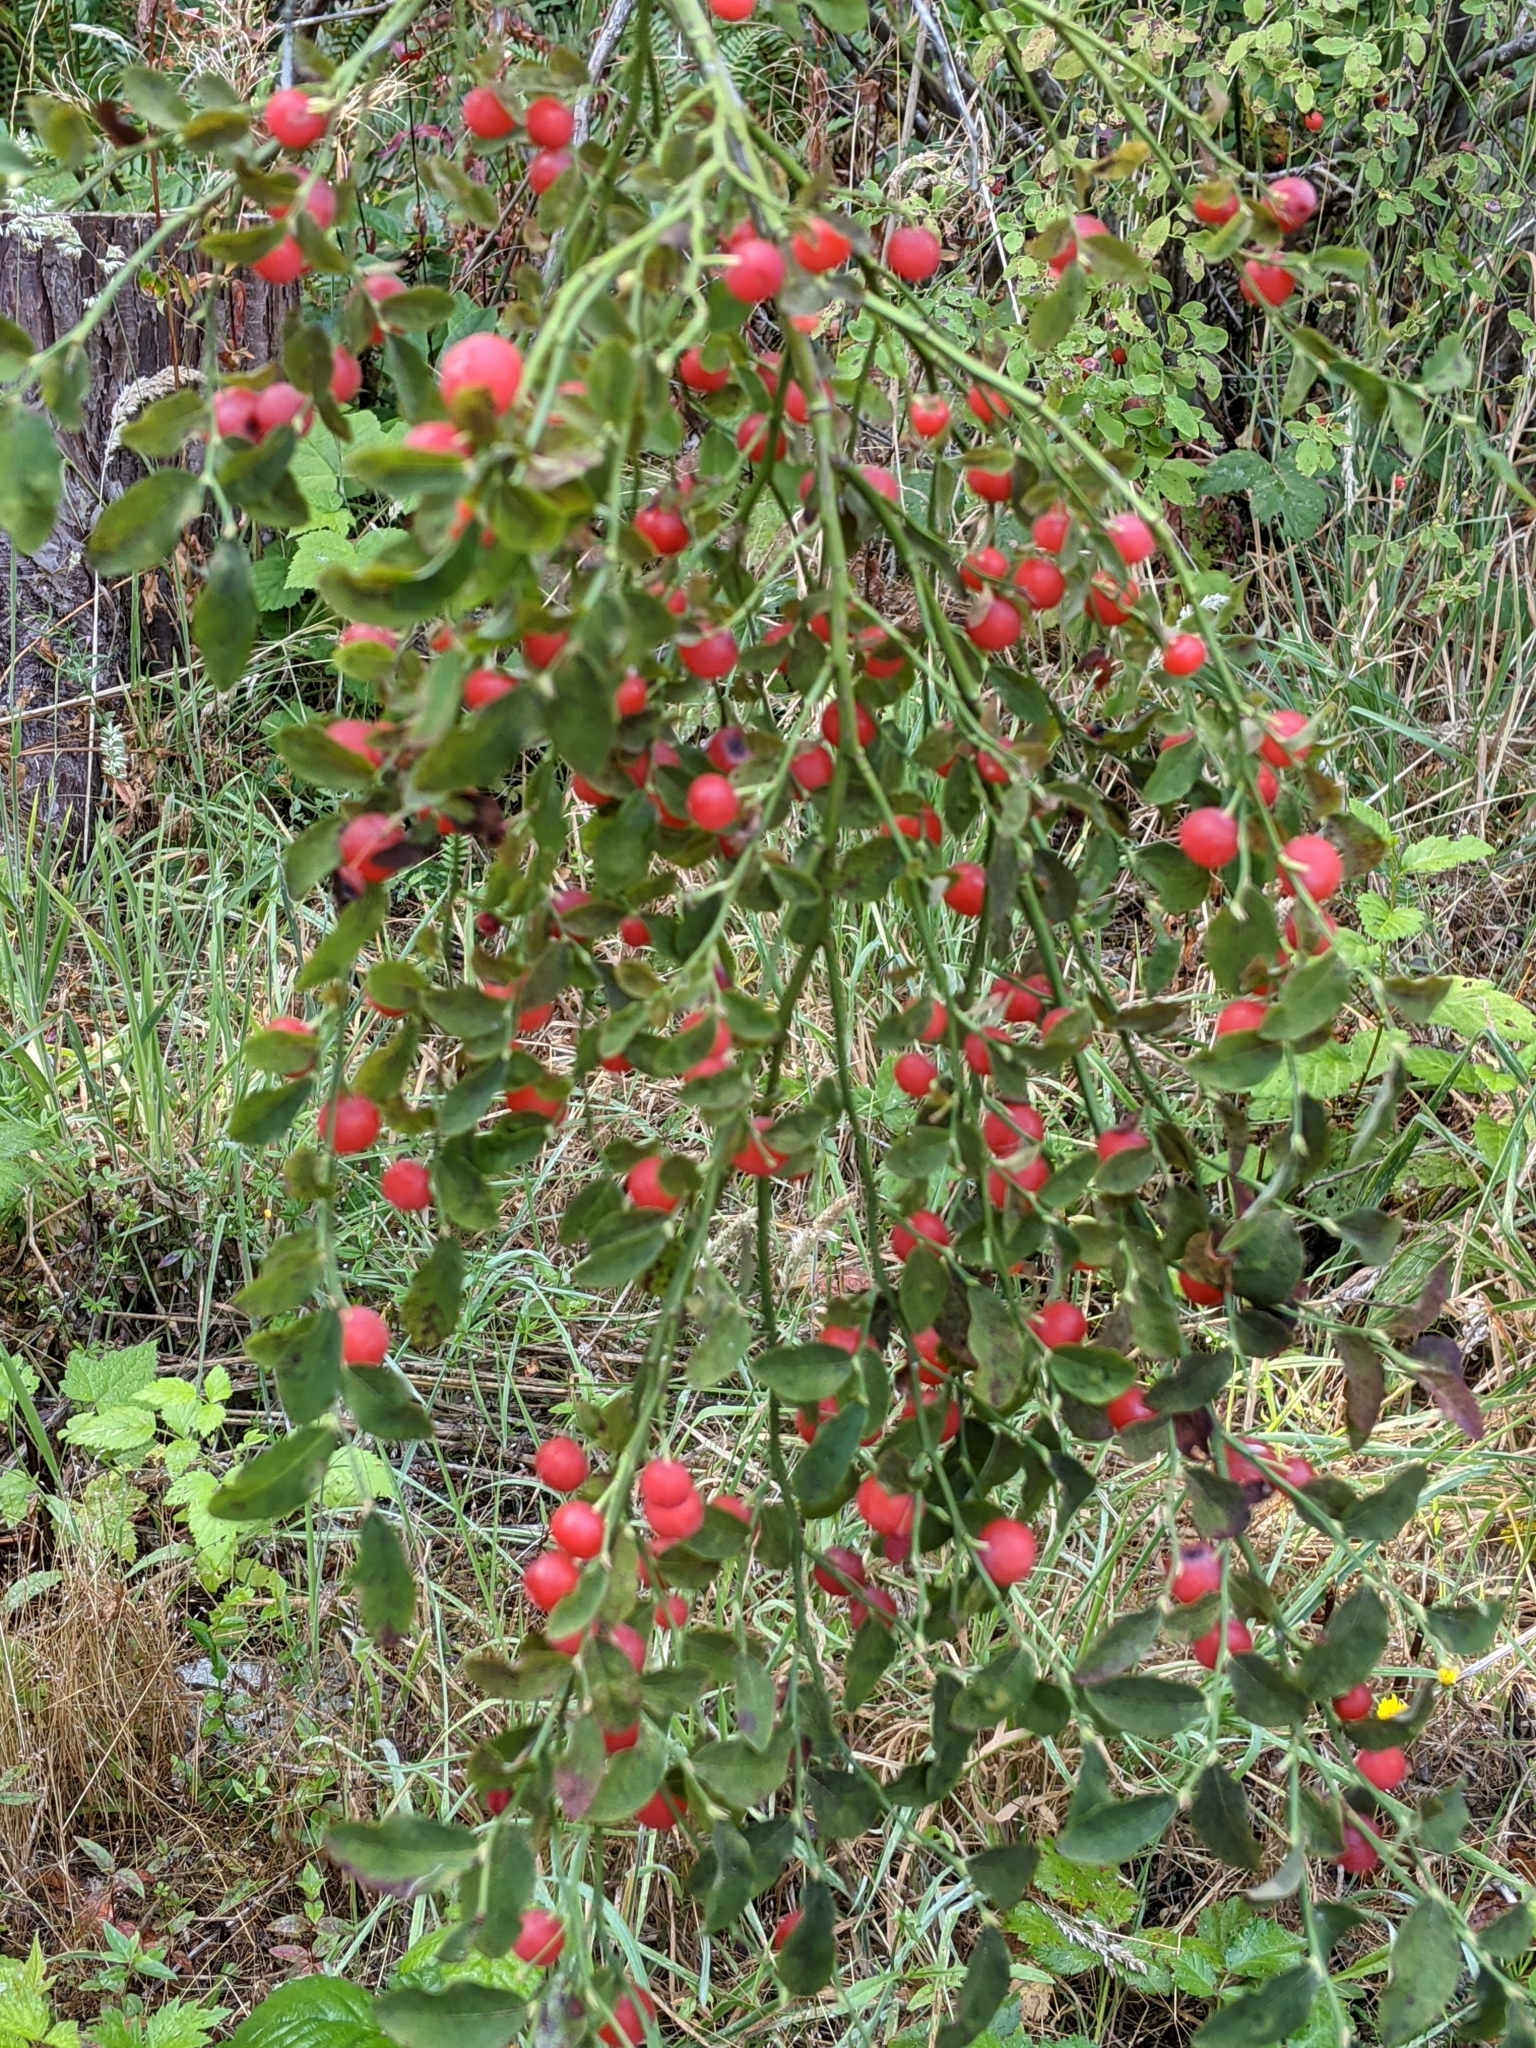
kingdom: Plantae
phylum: Tracheophyta
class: Magnoliopsida
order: Ericales
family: Ericaceae
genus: Vaccinium
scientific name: Vaccinium parvifolium
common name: Red-huckleberry
